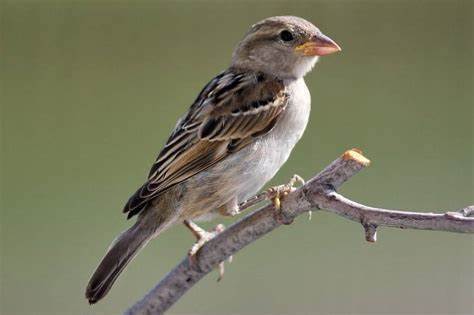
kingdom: Animalia
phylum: Chordata
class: Aves
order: Passeriformes
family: Passeridae
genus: Passer
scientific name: Passer domesticus
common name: House sparrow
